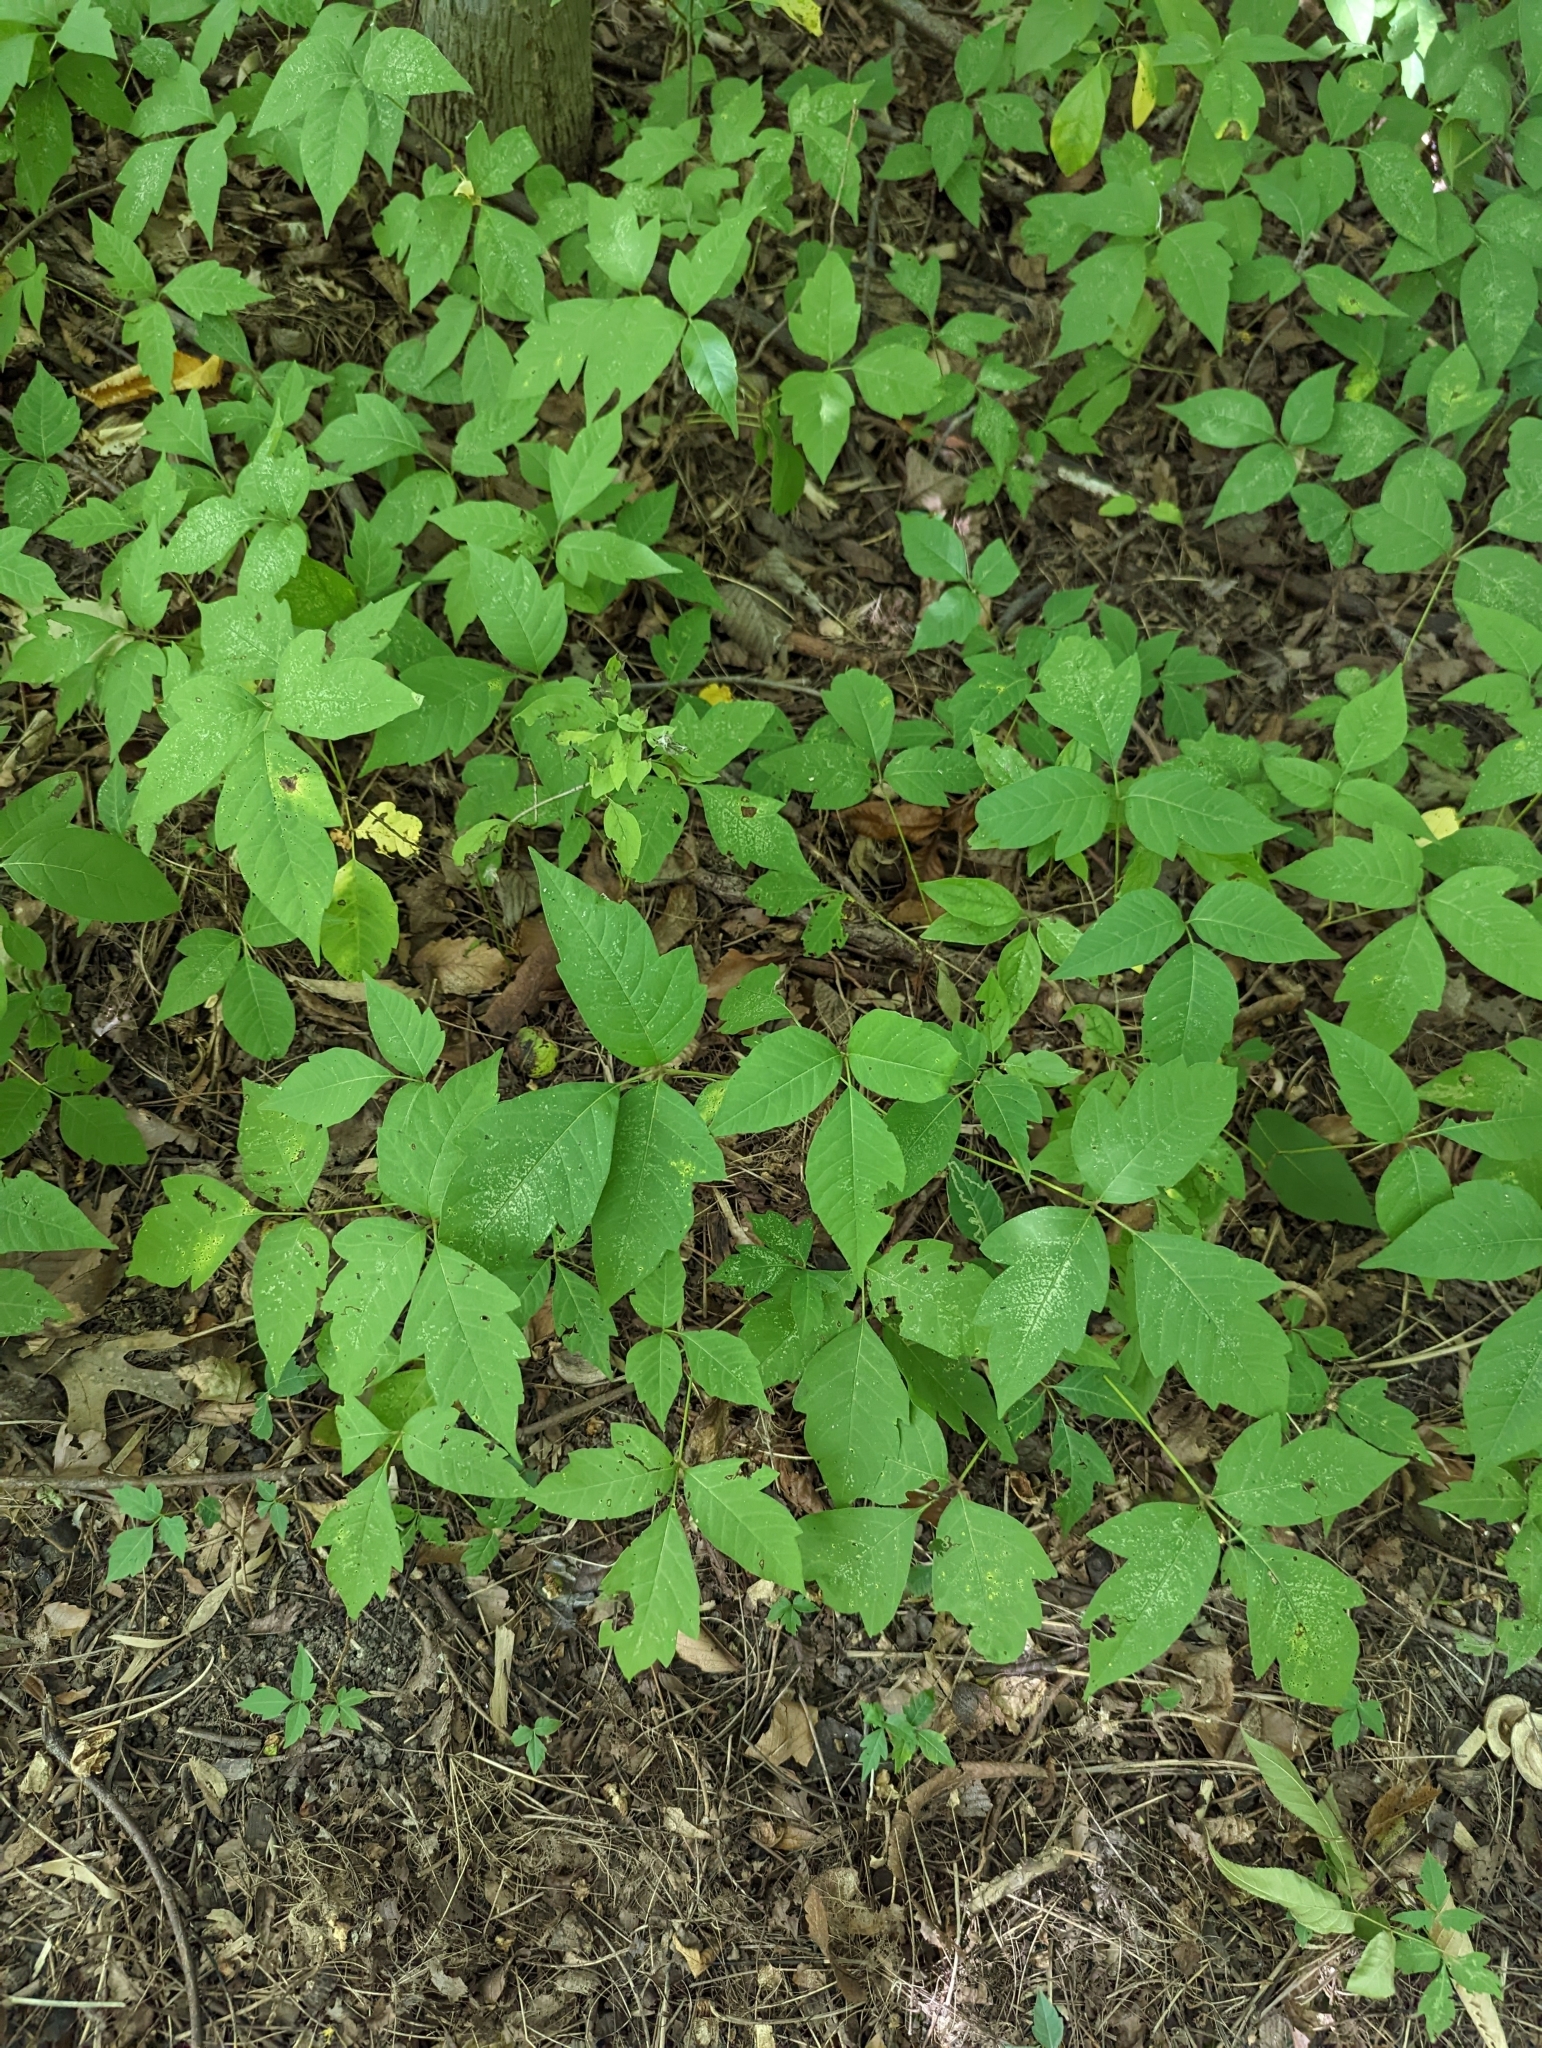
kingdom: Plantae
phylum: Tracheophyta
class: Magnoliopsida
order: Sapindales
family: Anacardiaceae
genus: Toxicodendron
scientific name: Toxicodendron radicans
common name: Poison ivy
